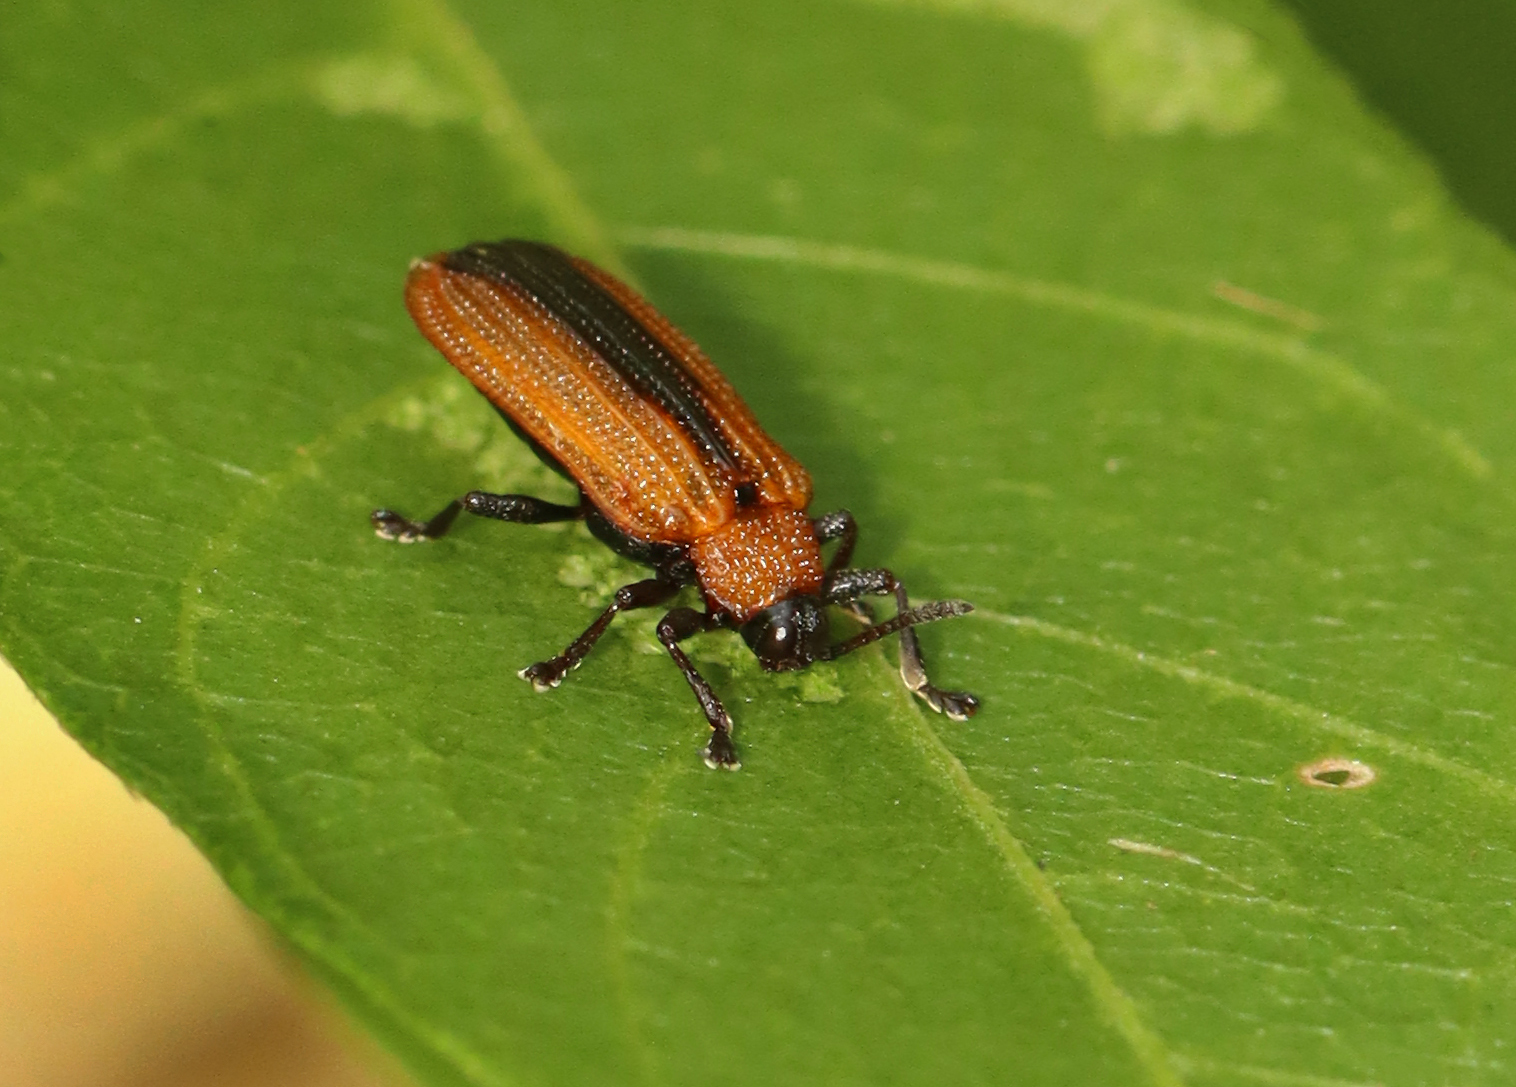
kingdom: Animalia
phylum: Arthropoda
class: Insecta
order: Coleoptera
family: Chrysomelidae
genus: Odontota
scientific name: Odontota dorsalis
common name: Locust leaf-miner beetle
